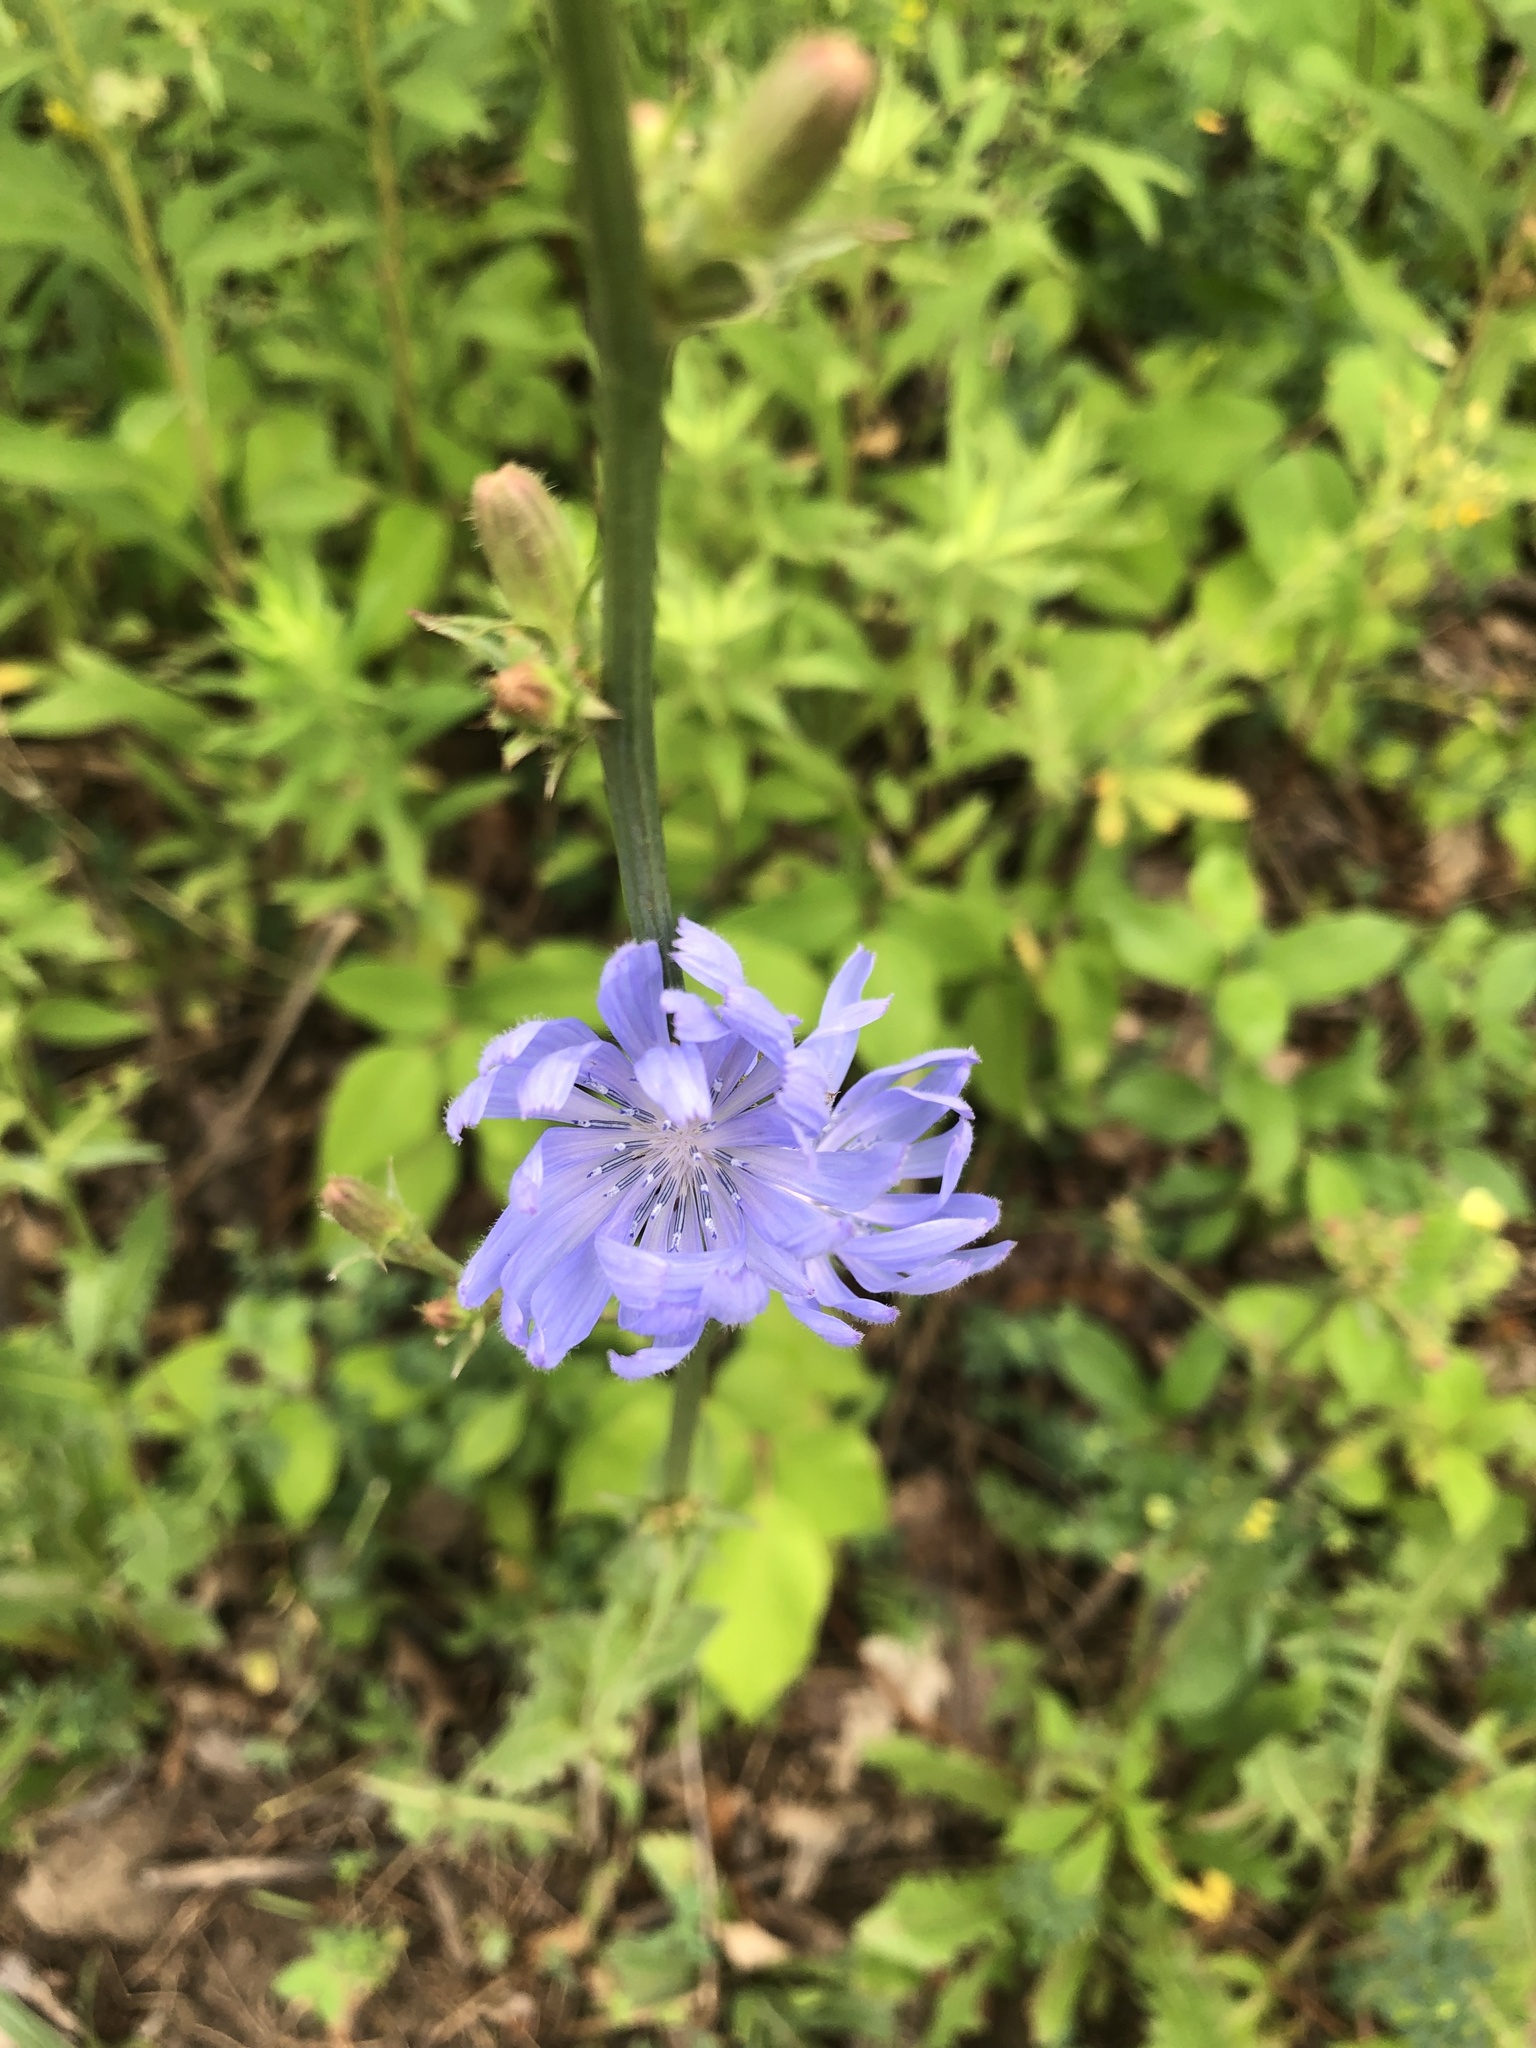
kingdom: Plantae
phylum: Tracheophyta
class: Magnoliopsida
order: Asterales
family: Asteraceae
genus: Cichorium
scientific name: Cichorium intybus
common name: Chicory
